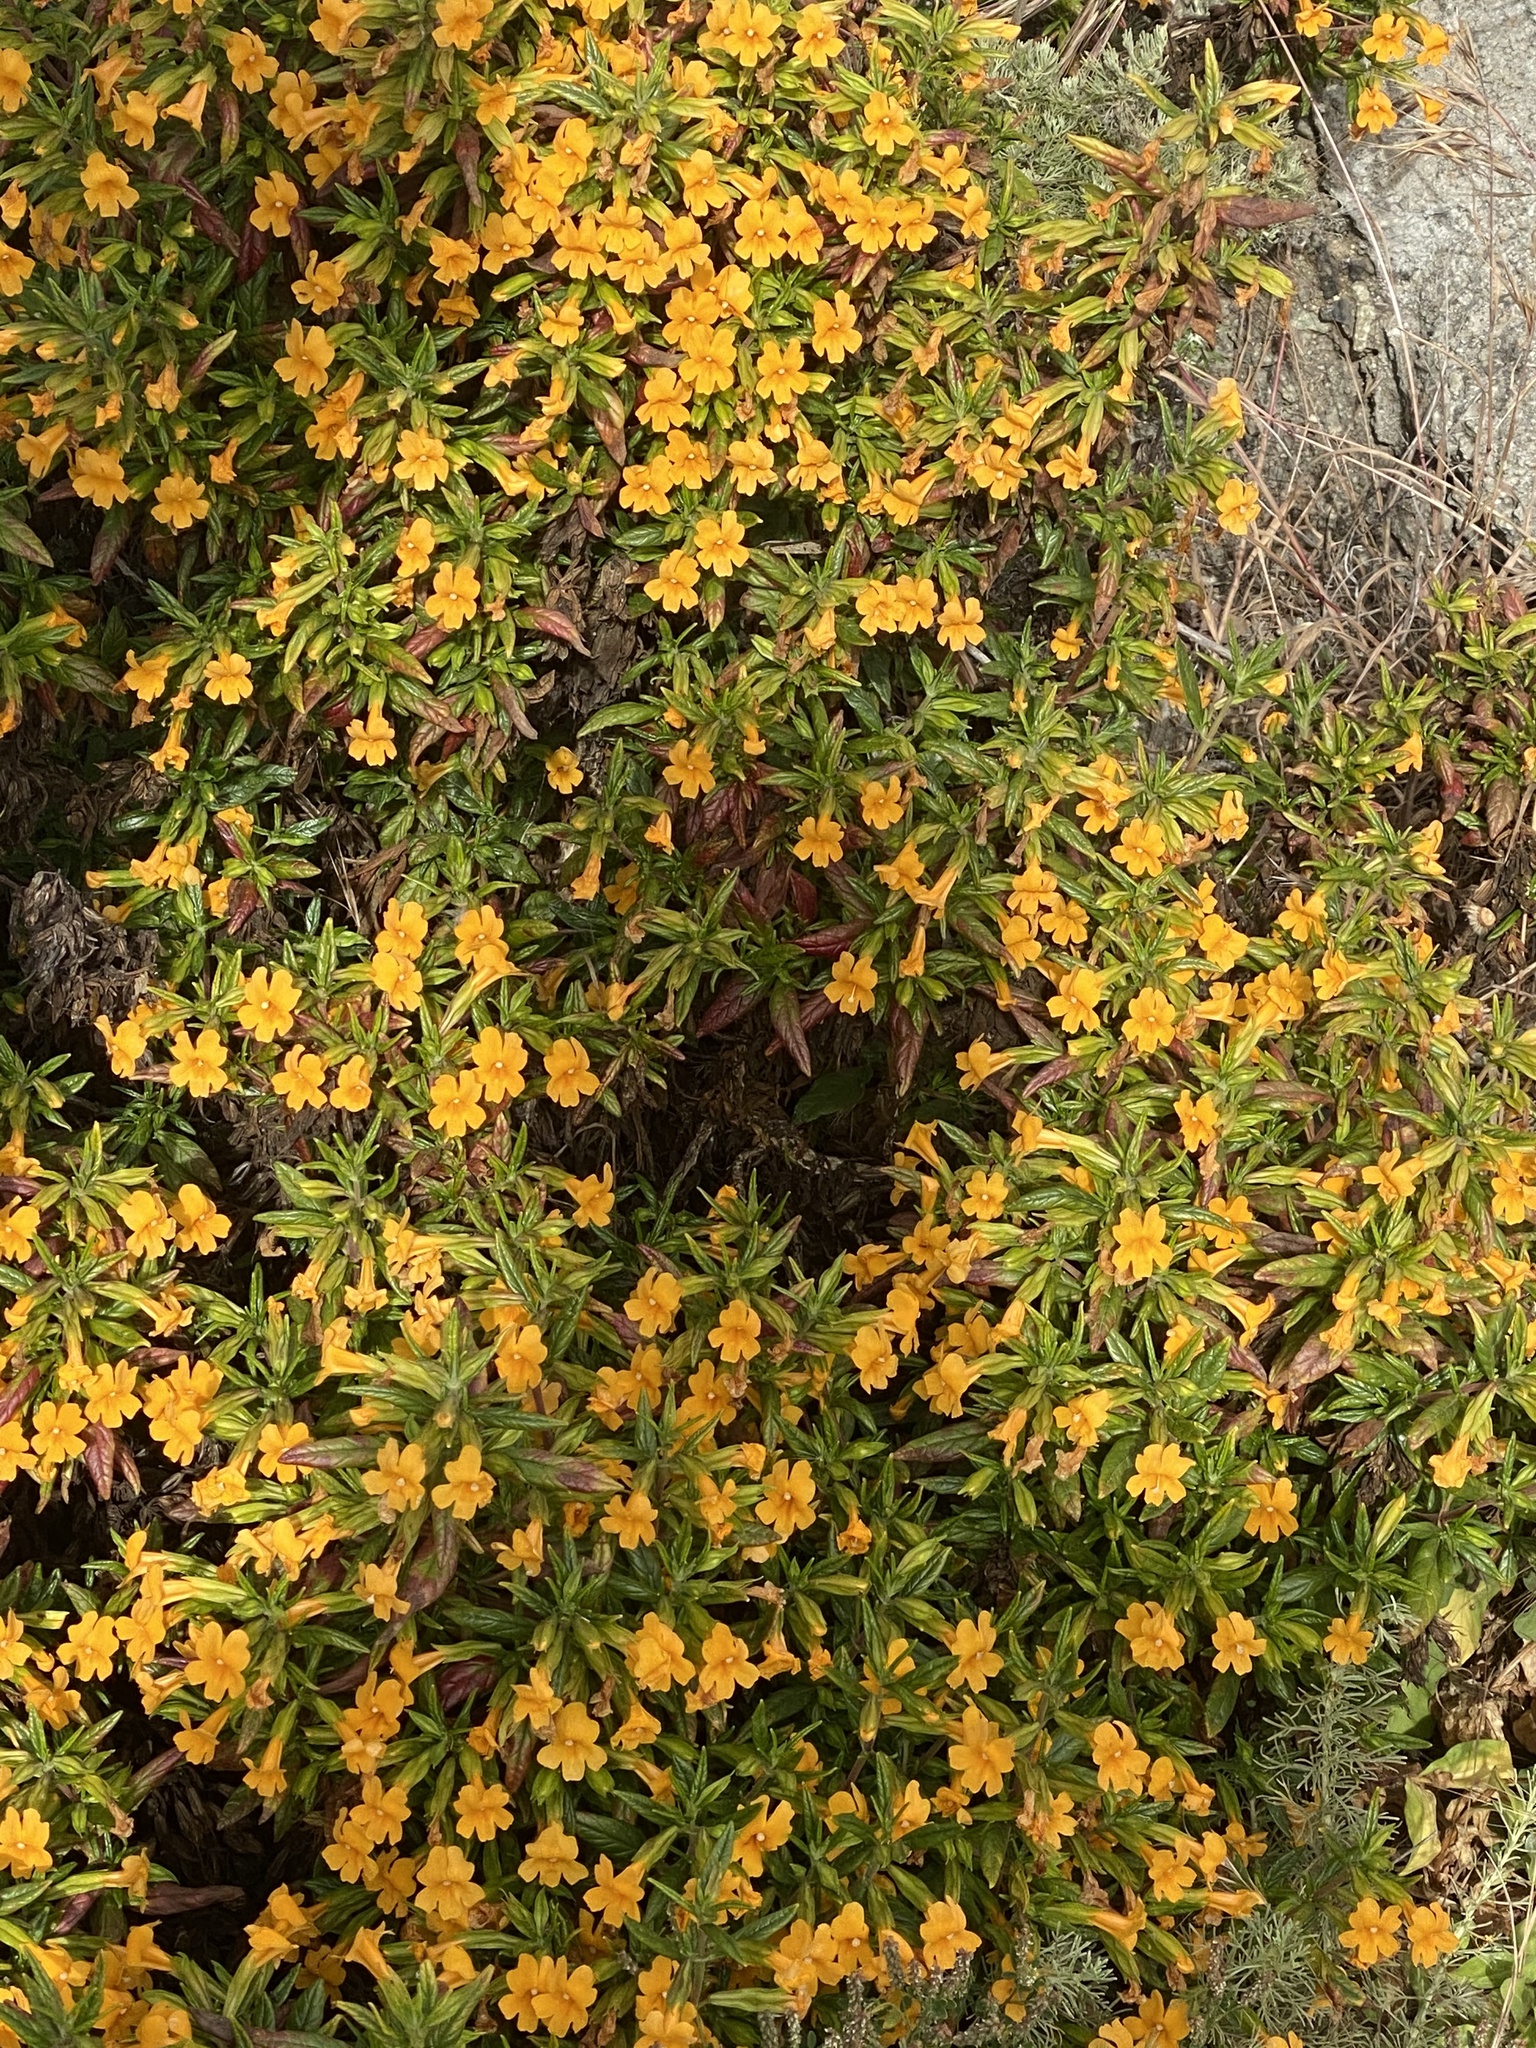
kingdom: Plantae
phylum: Tracheophyta
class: Magnoliopsida
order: Lamiales
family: Phrymaceae
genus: Diplacus
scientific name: Diplacus aurantiacus
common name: Bush monkey-flower
